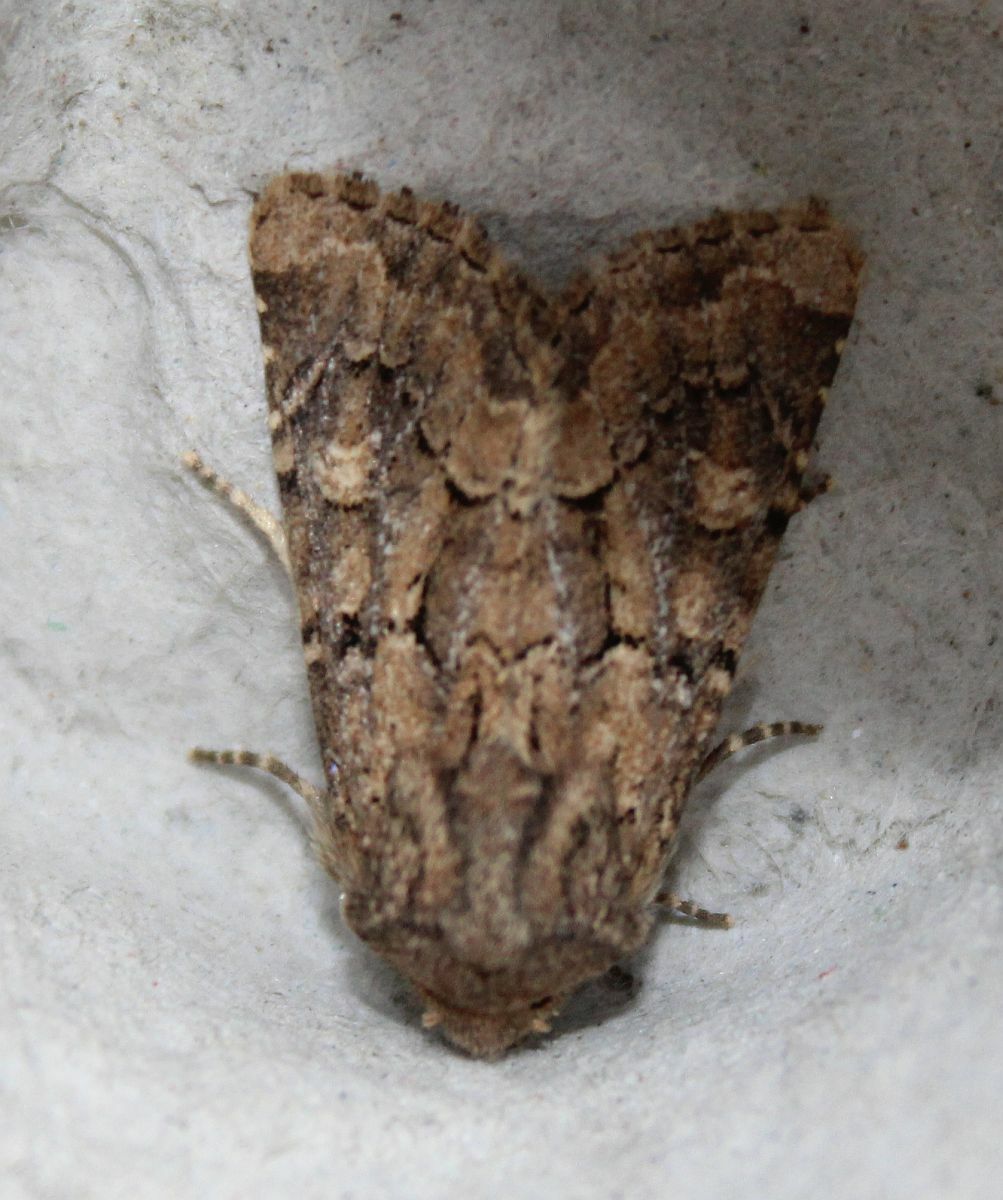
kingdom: Animalia
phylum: Arthropoda
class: Insecta
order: Lepidoptera
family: Noctuidae
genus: Luperina
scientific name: Luperina testacea
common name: Flounced rustic
